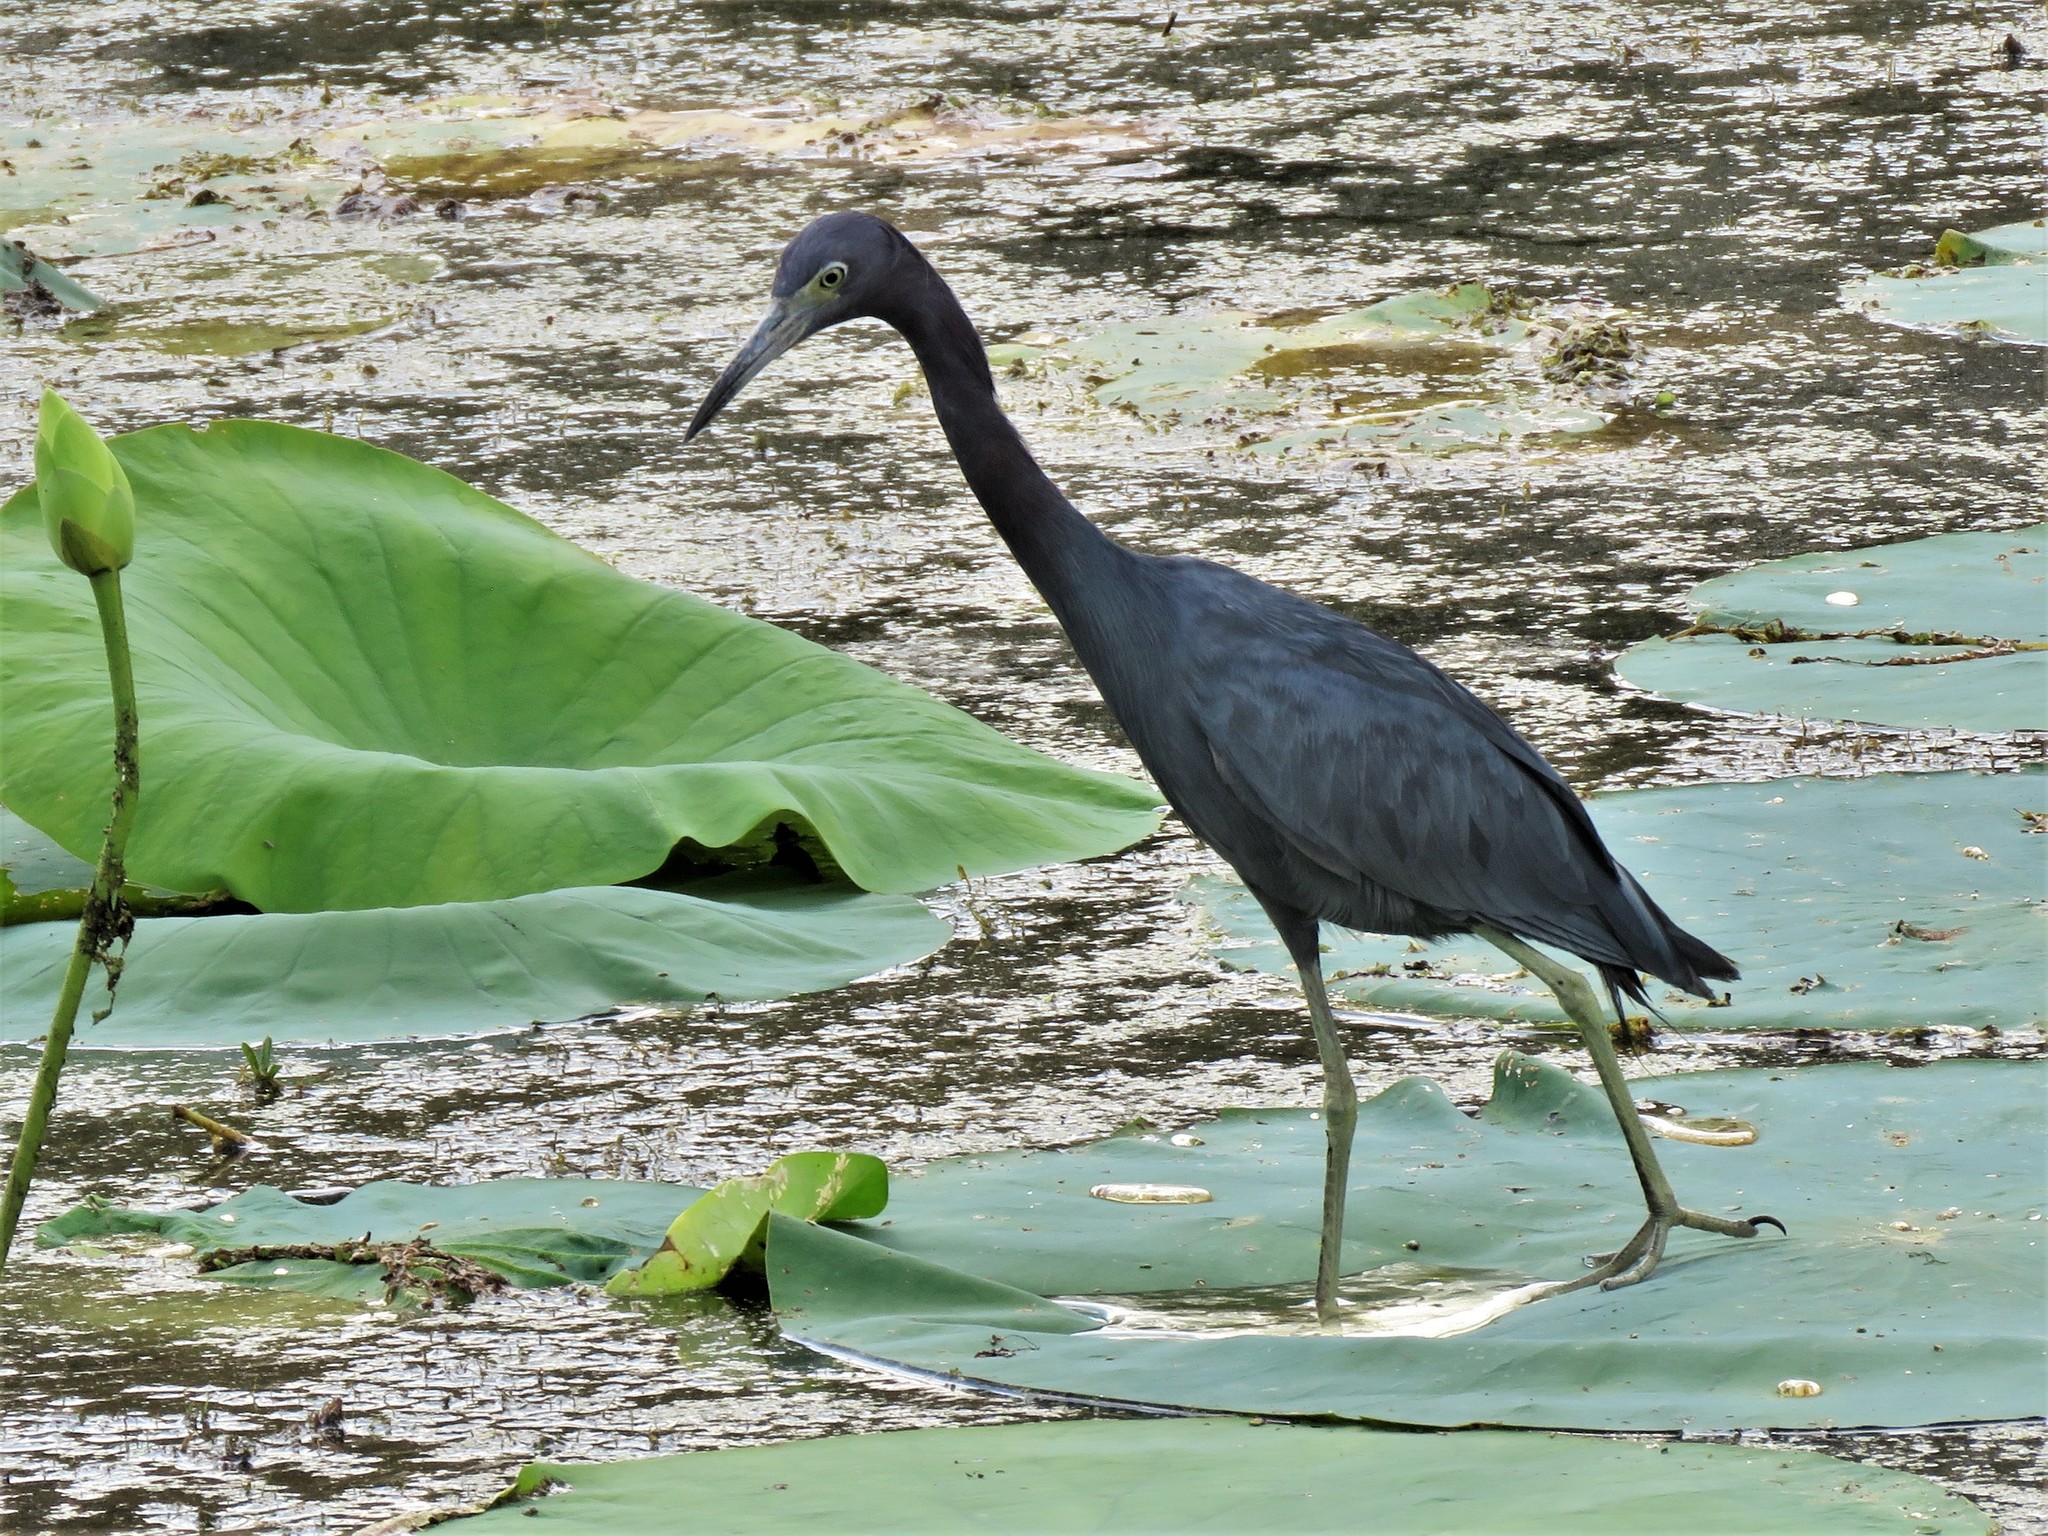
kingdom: Animalia
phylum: Chordata
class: Aves
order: Pelecaniformes
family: Ardeidae
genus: Egretta
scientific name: Egretta caerulea
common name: Little blue heron
